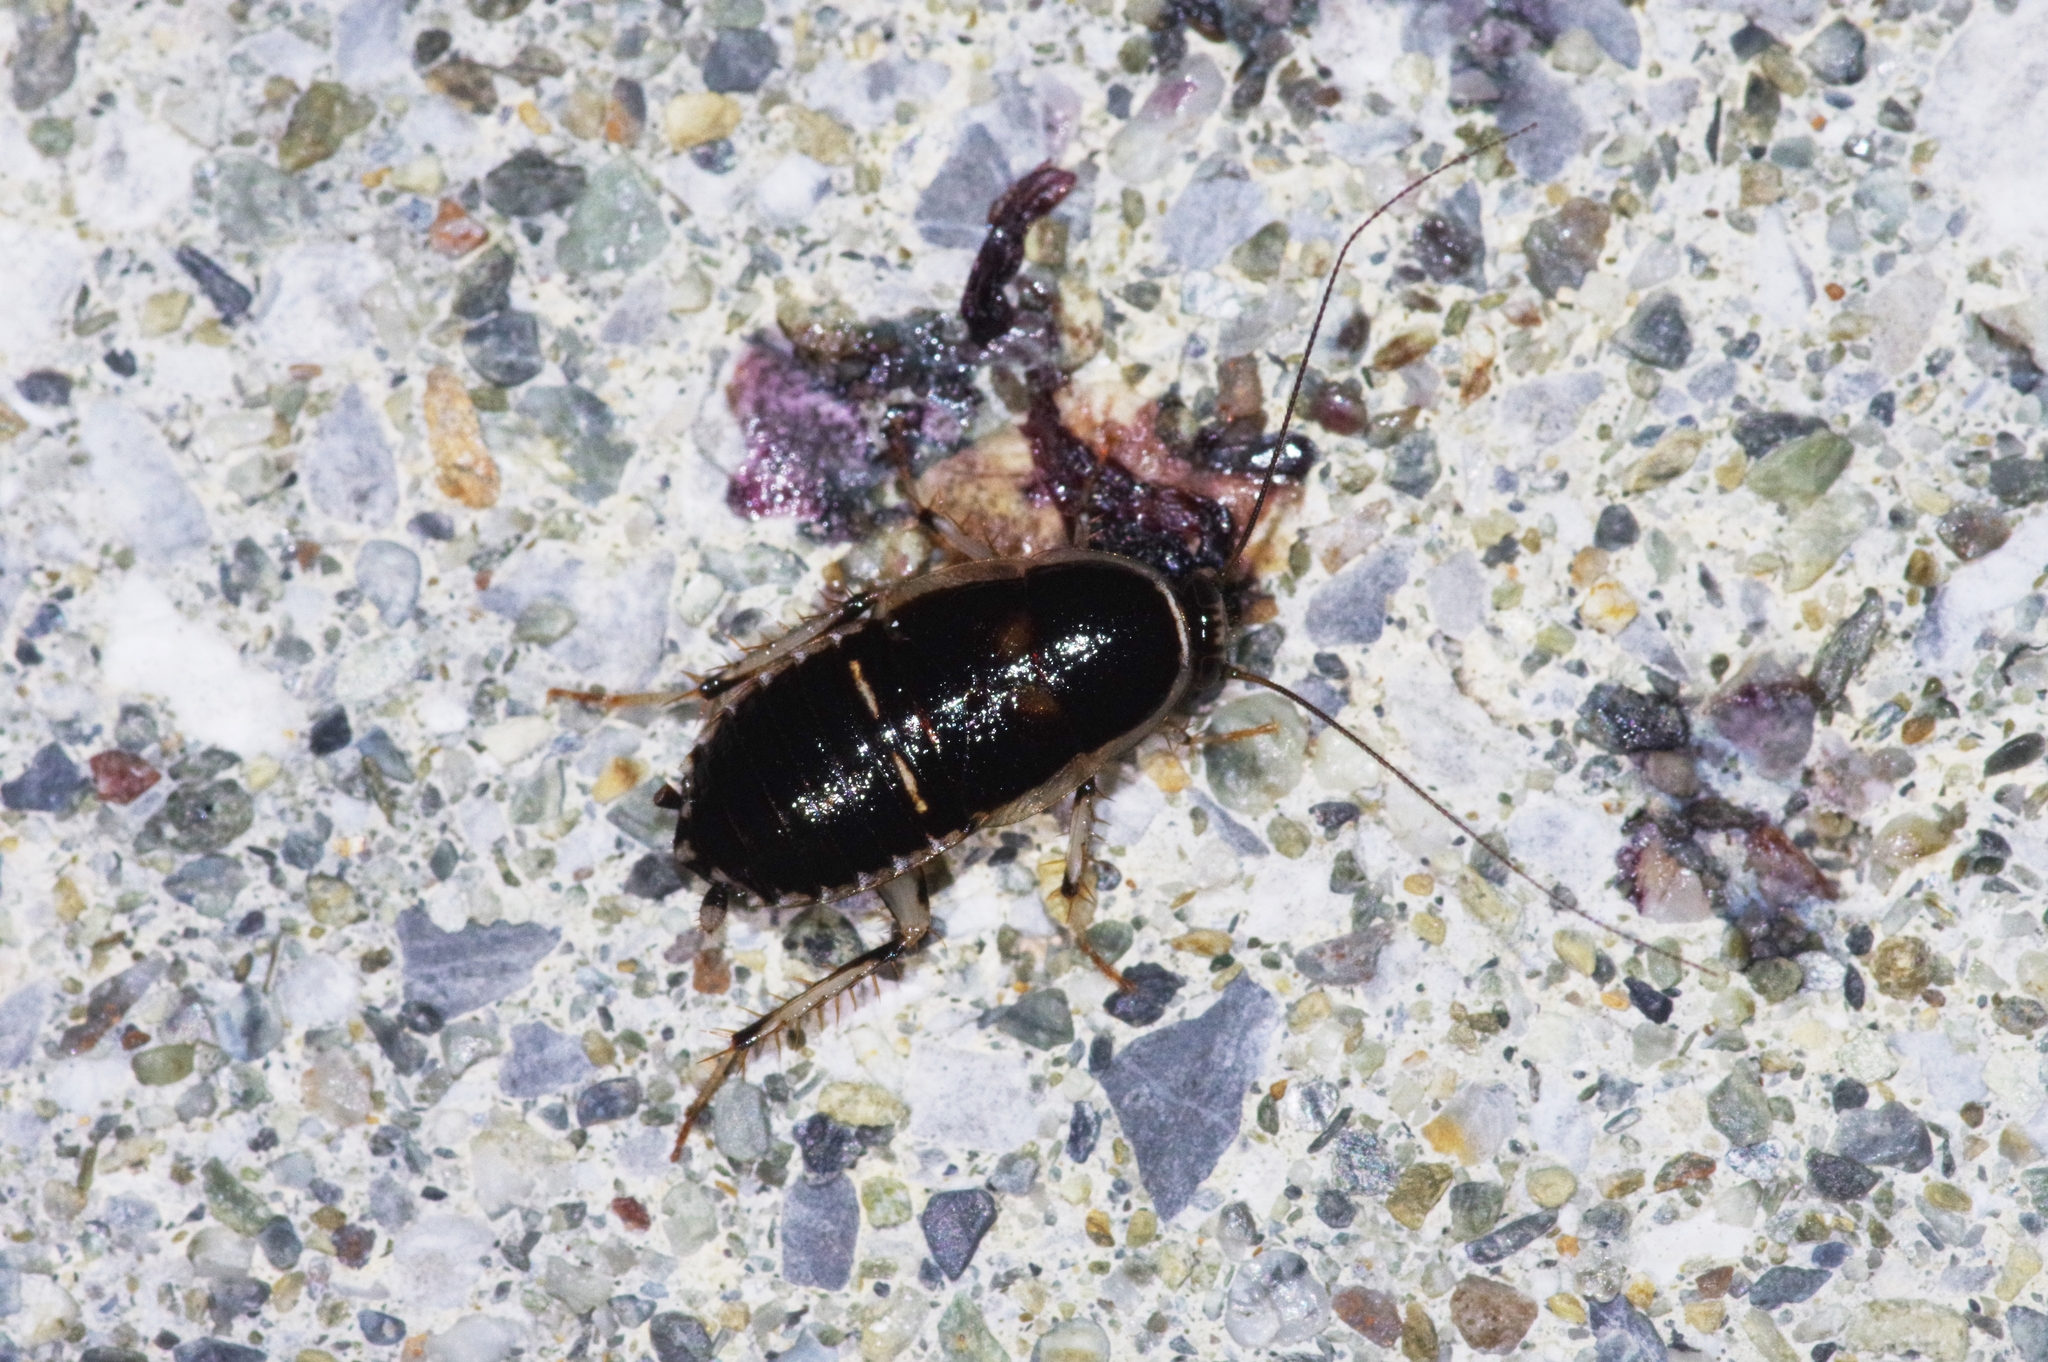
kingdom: Animalia
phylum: Arthropoda
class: Insecta
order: Blattodea
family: Ectobiidae
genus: Lobopterella
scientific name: Lobopterella dimidiatipes
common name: Cockroach
